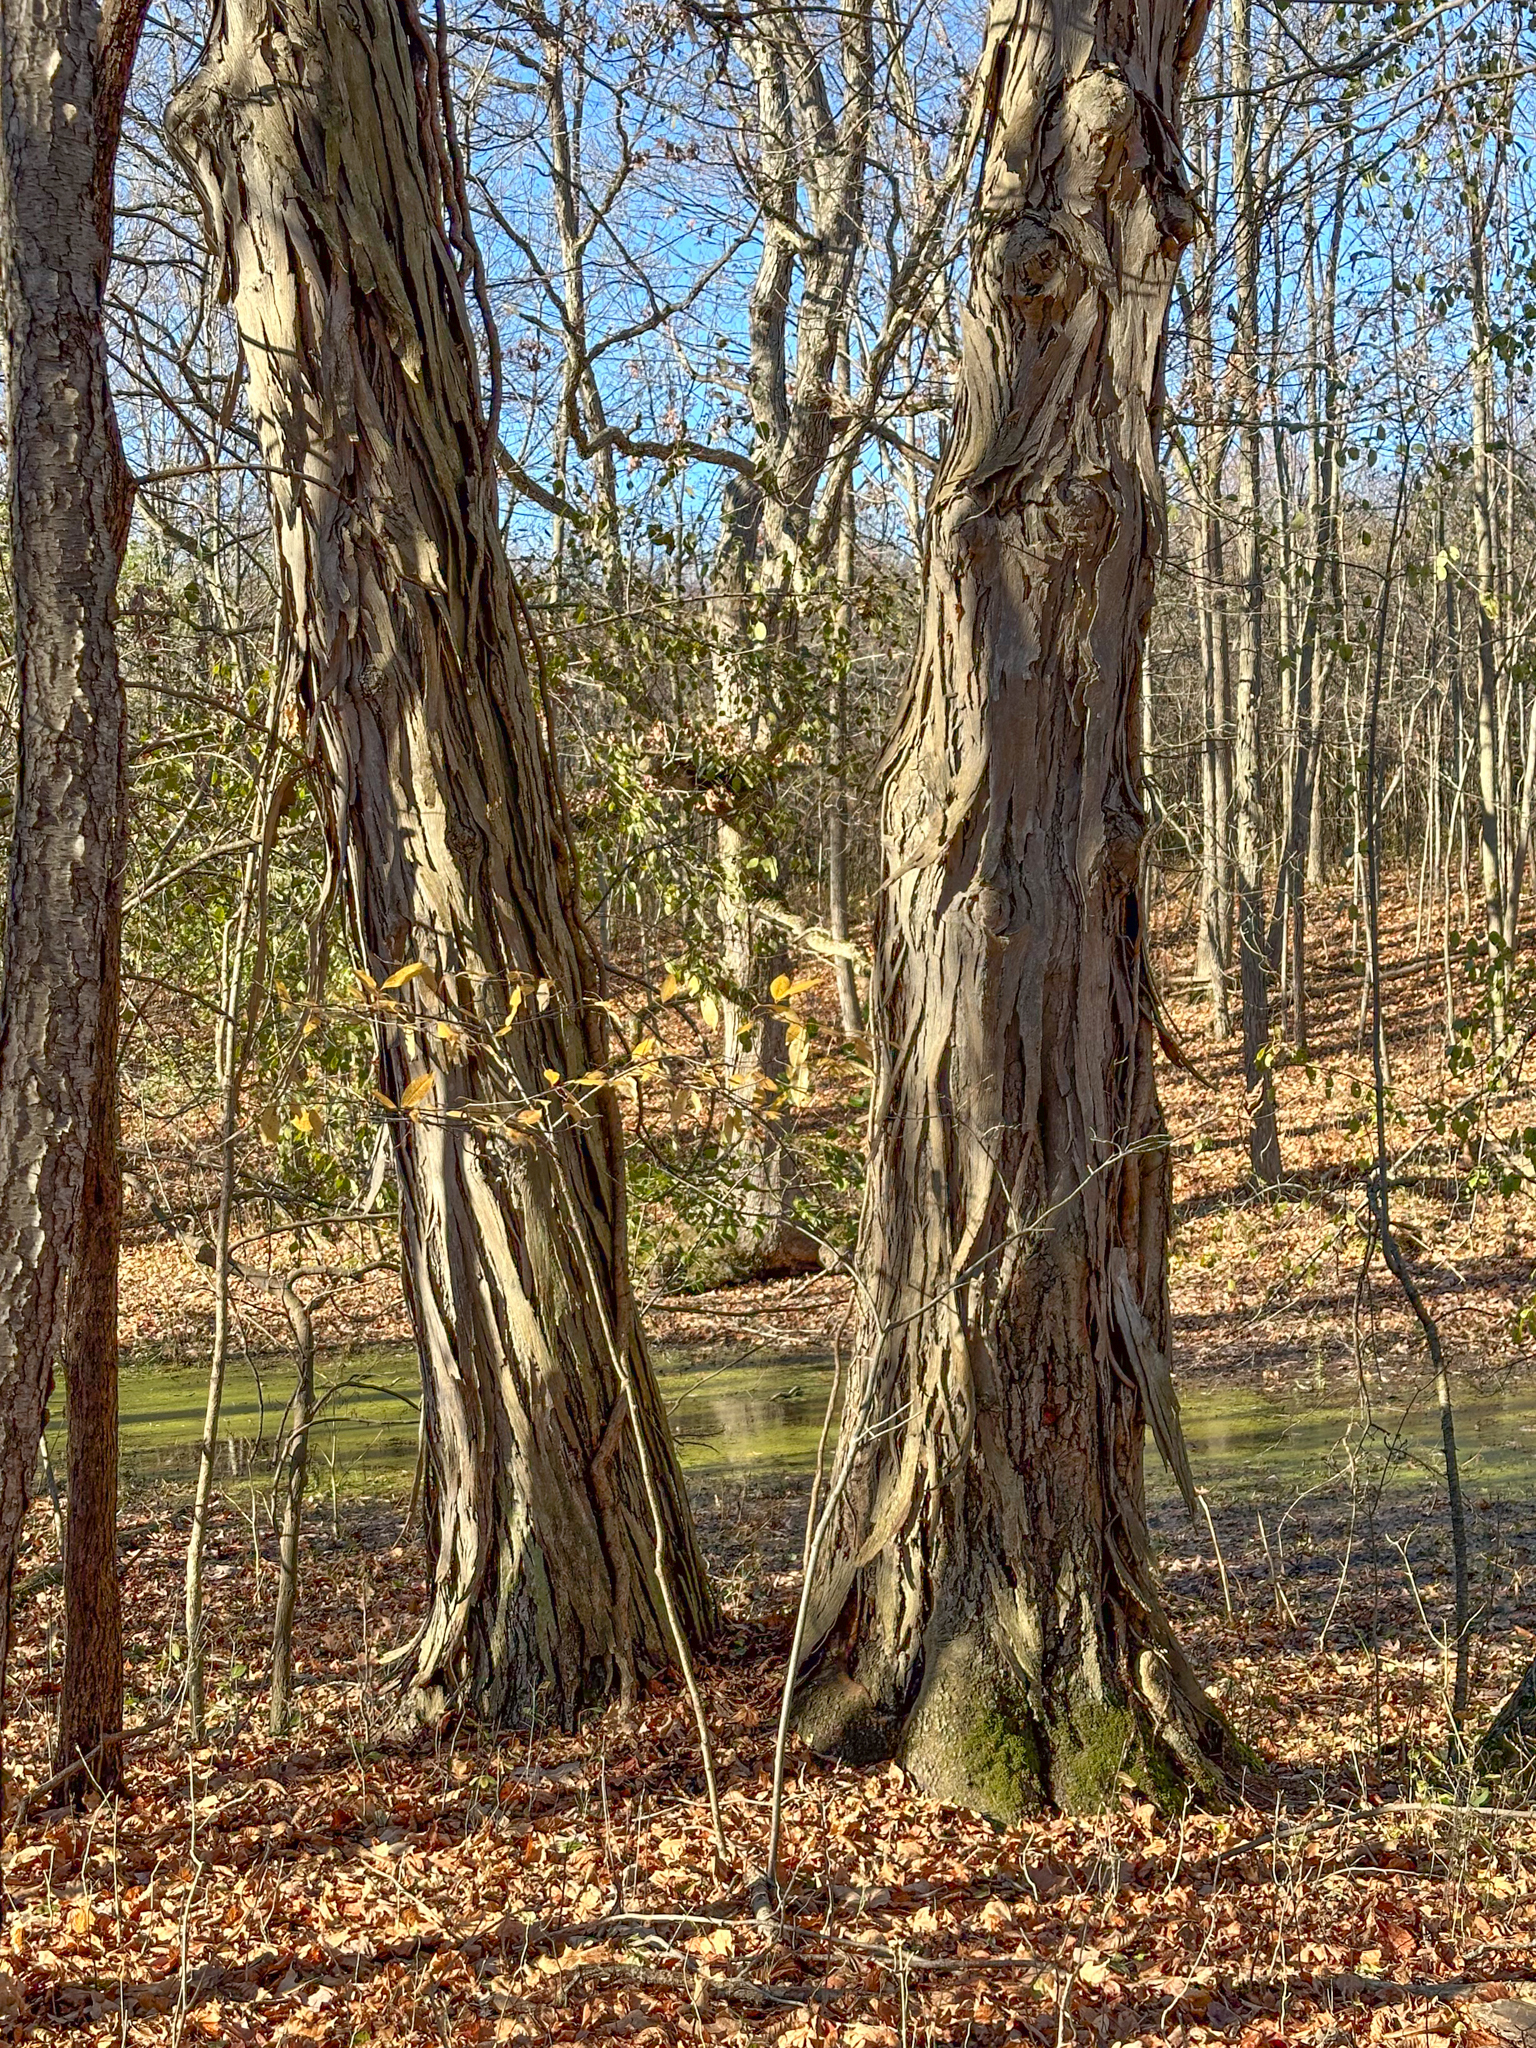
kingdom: Plantae
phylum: Tracheophyta
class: Magnoliopsida
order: Fagales
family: Juglandaceae
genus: Carya
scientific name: Carya ovata
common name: Shagbark hickory
